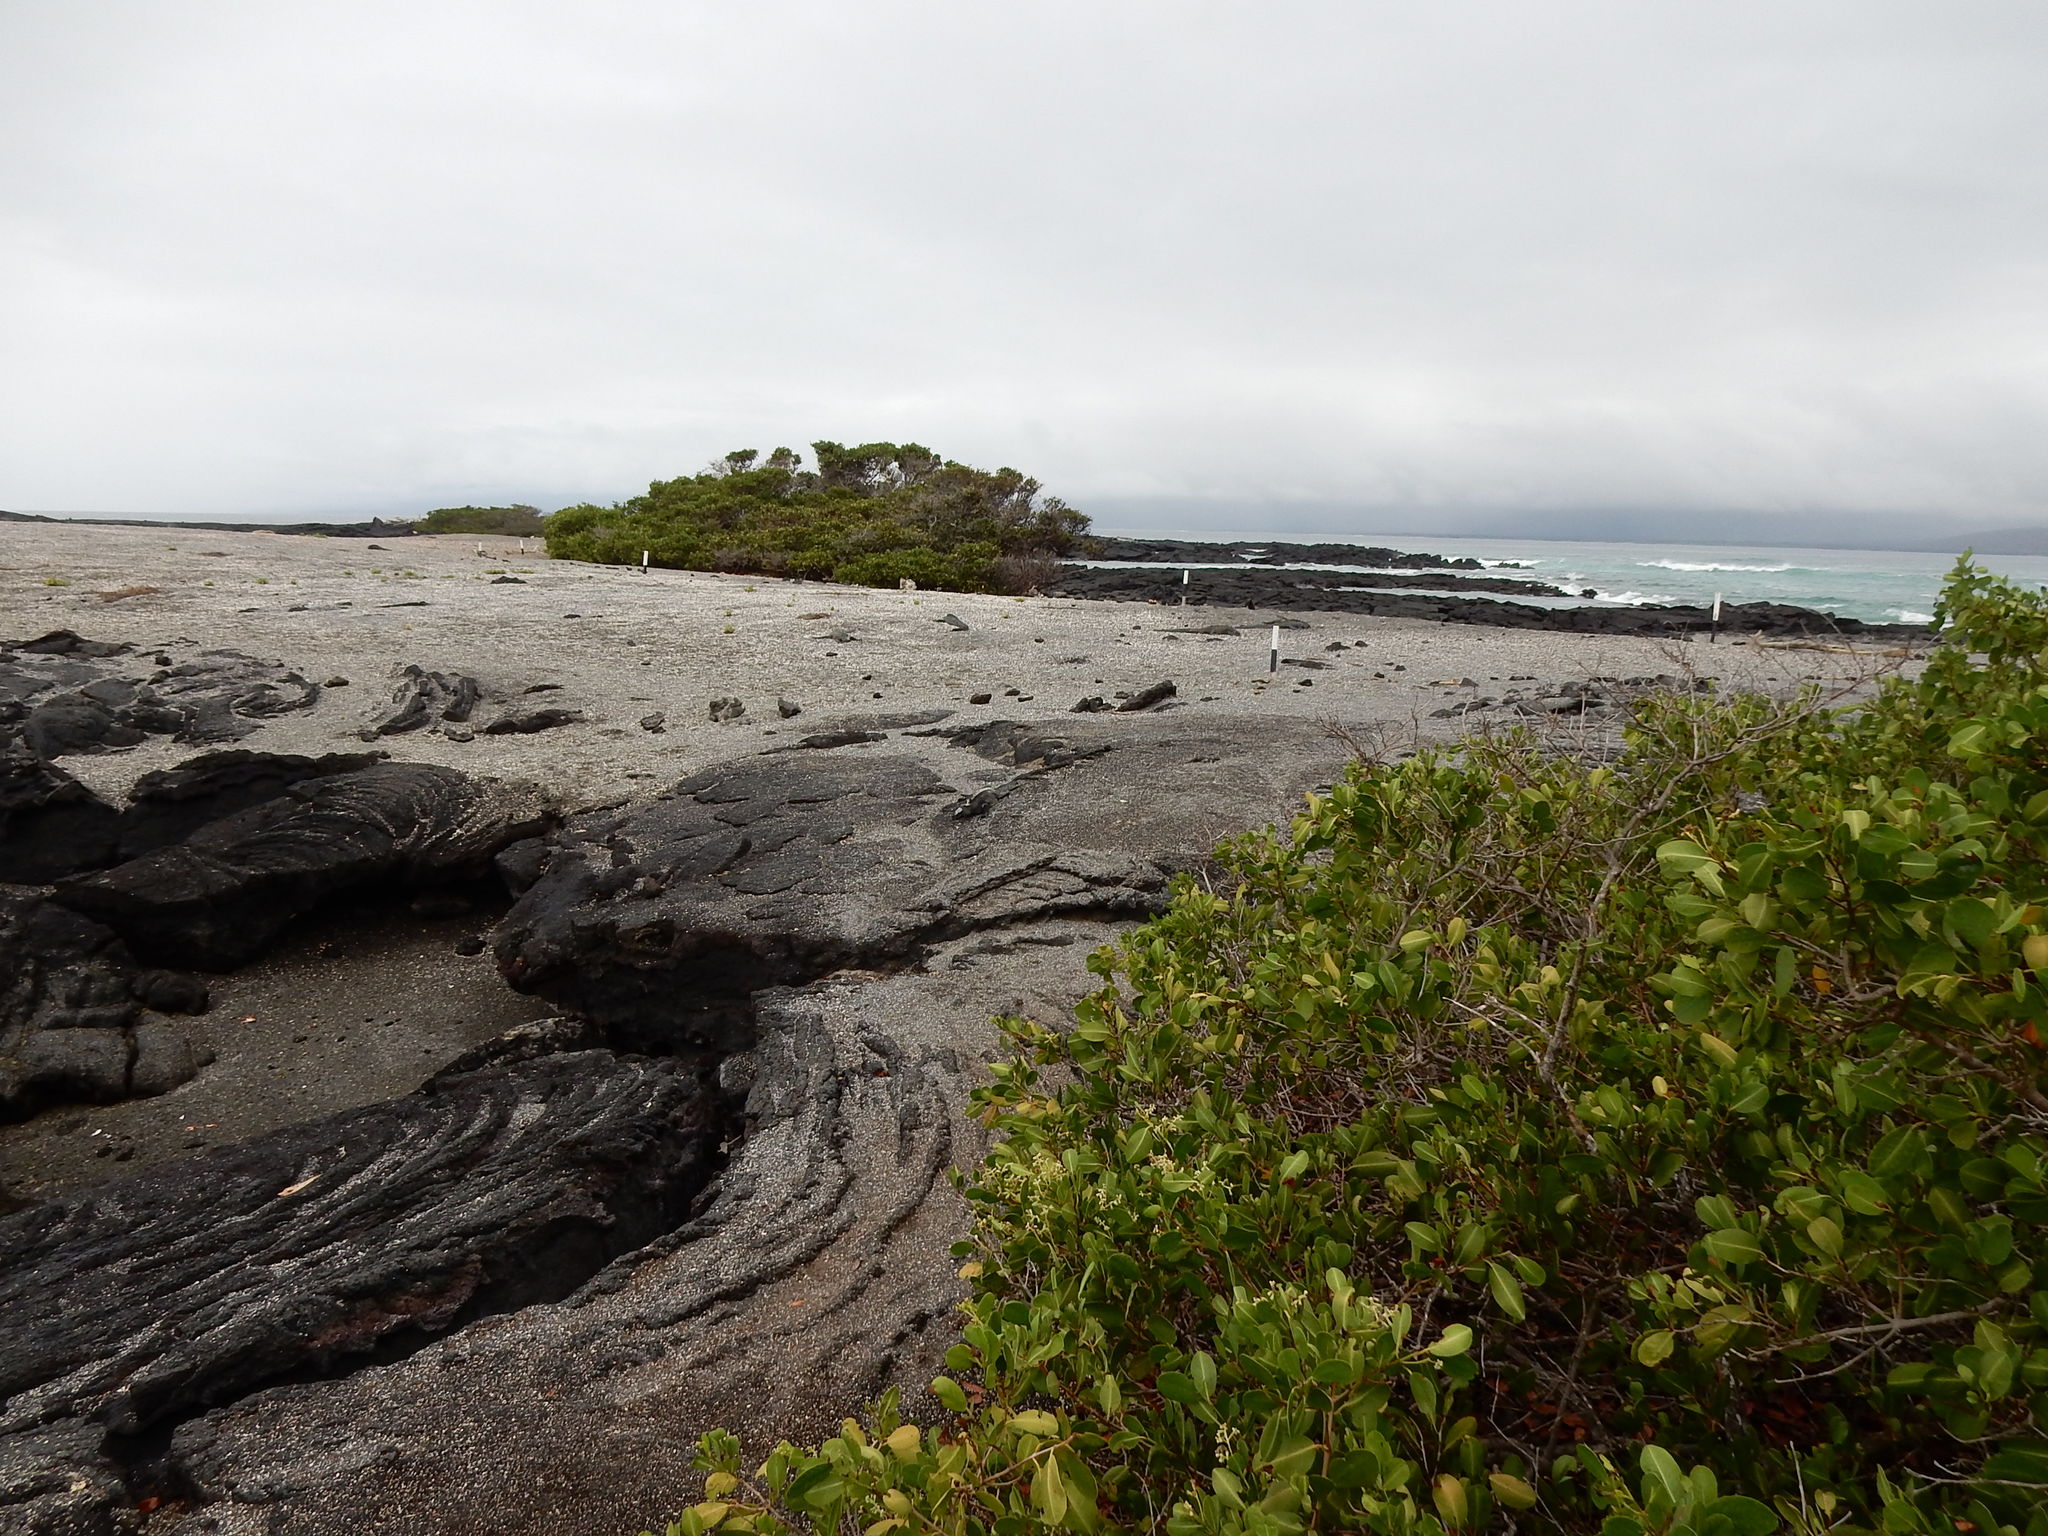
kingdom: Plantae
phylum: Tracheophyta
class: Magnoliopsida
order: Malpighiales
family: Rhizophoraceae
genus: Rhizophora
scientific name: Rhizophora mangle
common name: Red mangrove
